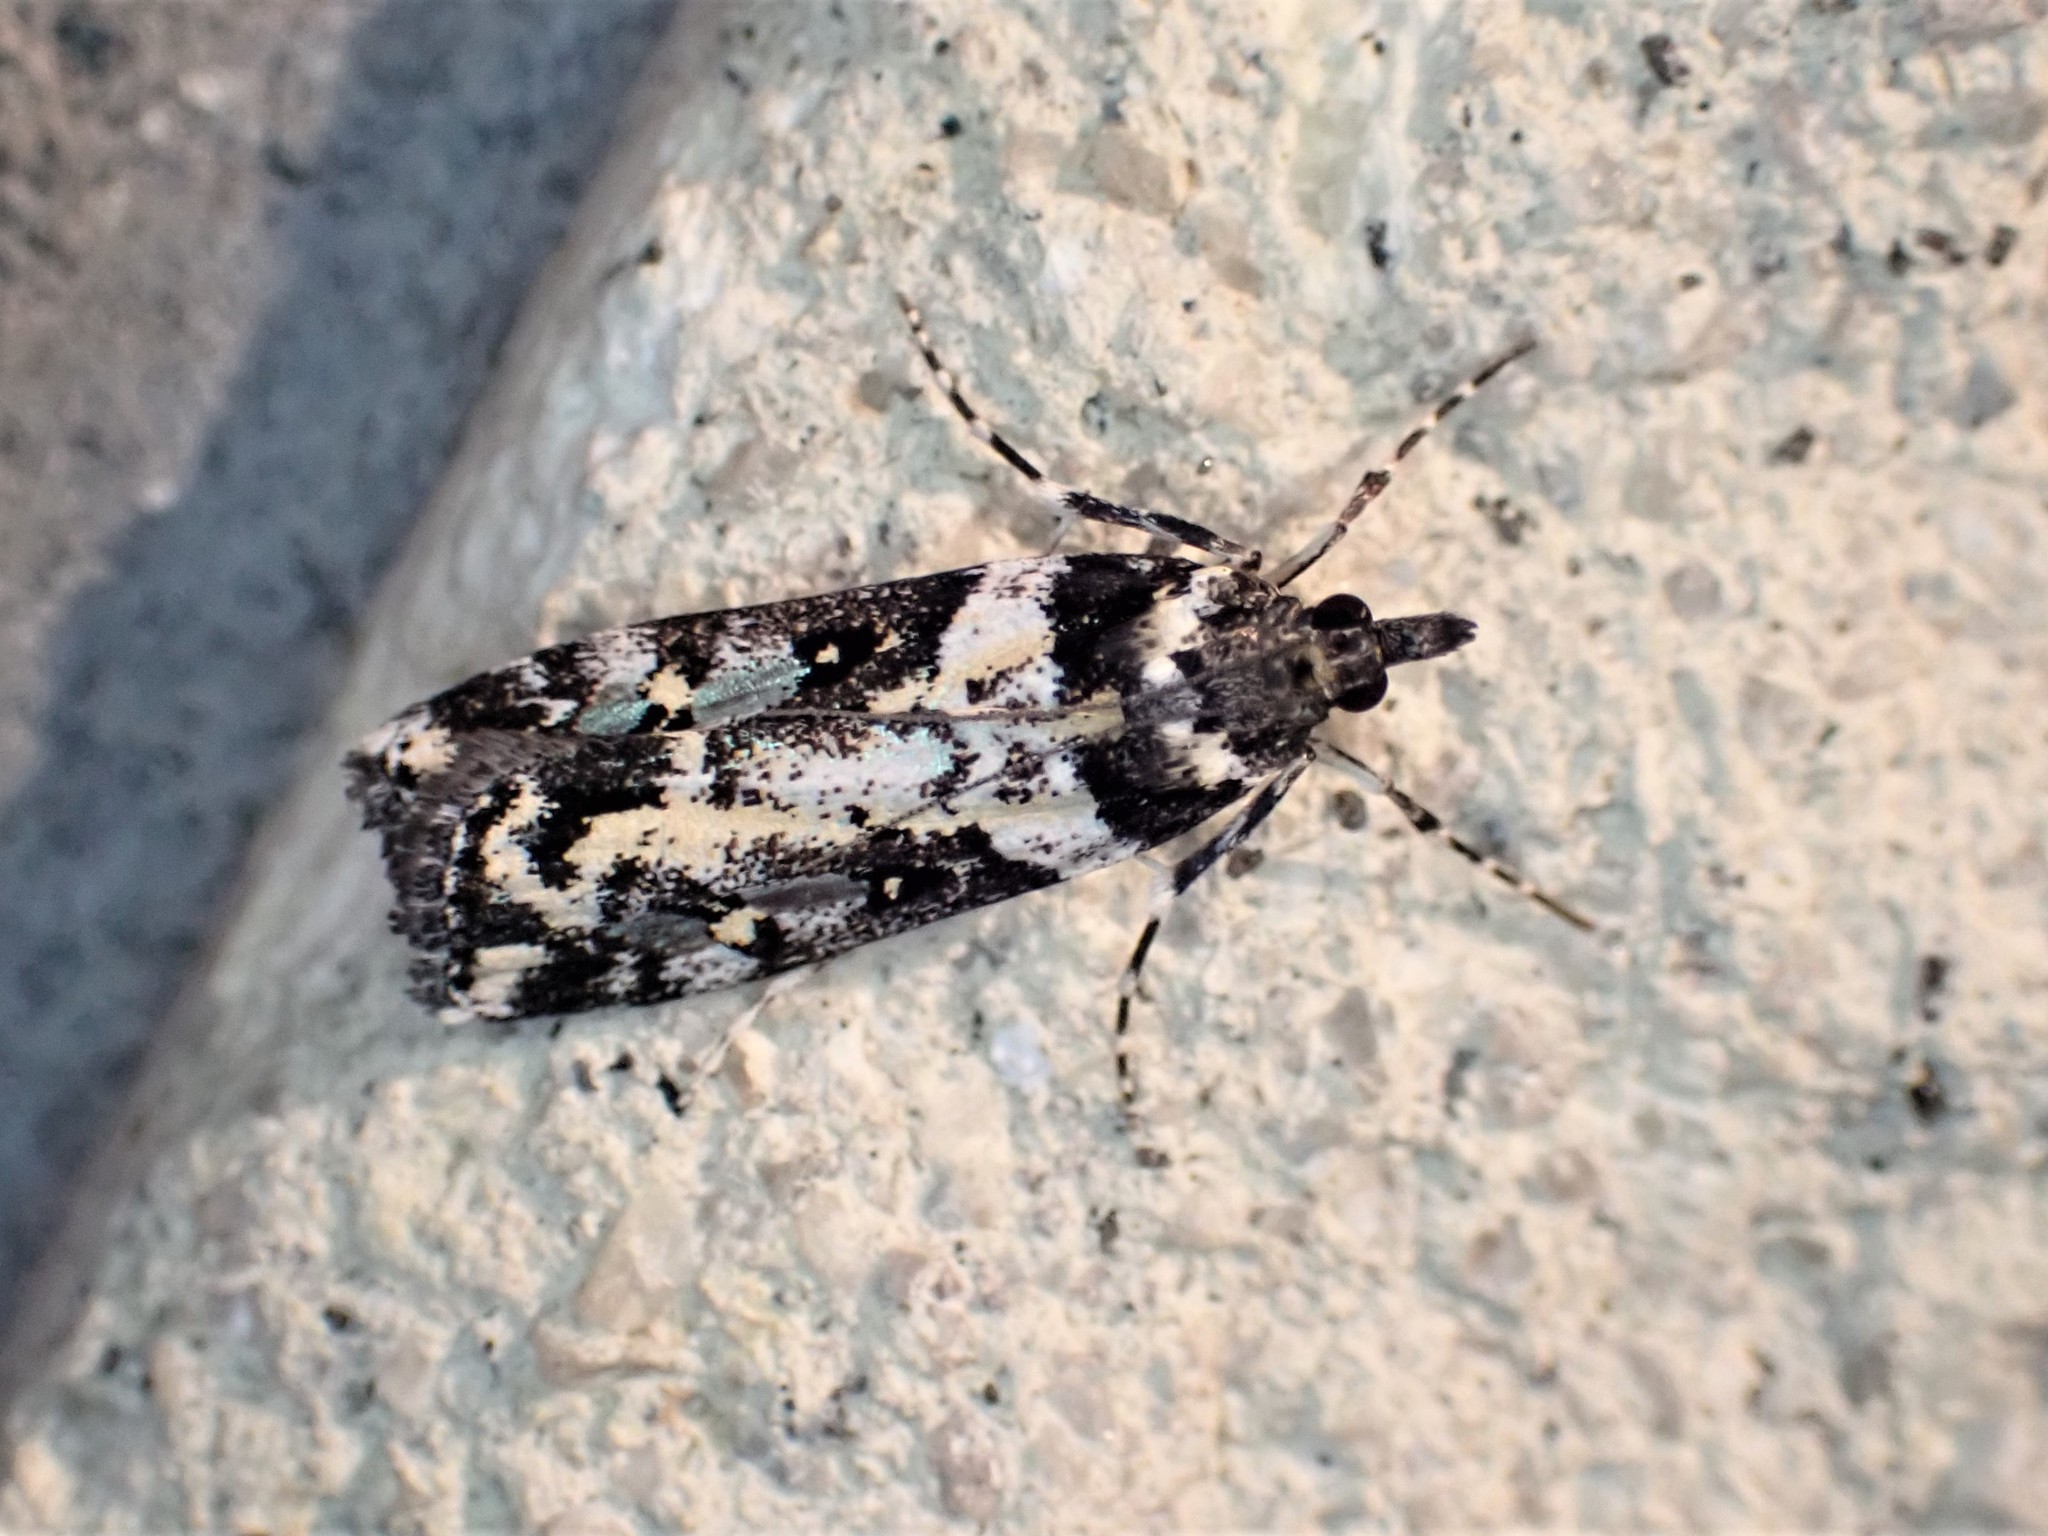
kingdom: Animalia
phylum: Arthropoda
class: Insecta
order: Lepidoptera
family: Crambidae
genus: Eudonia
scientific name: Eudonia diphtheralis
